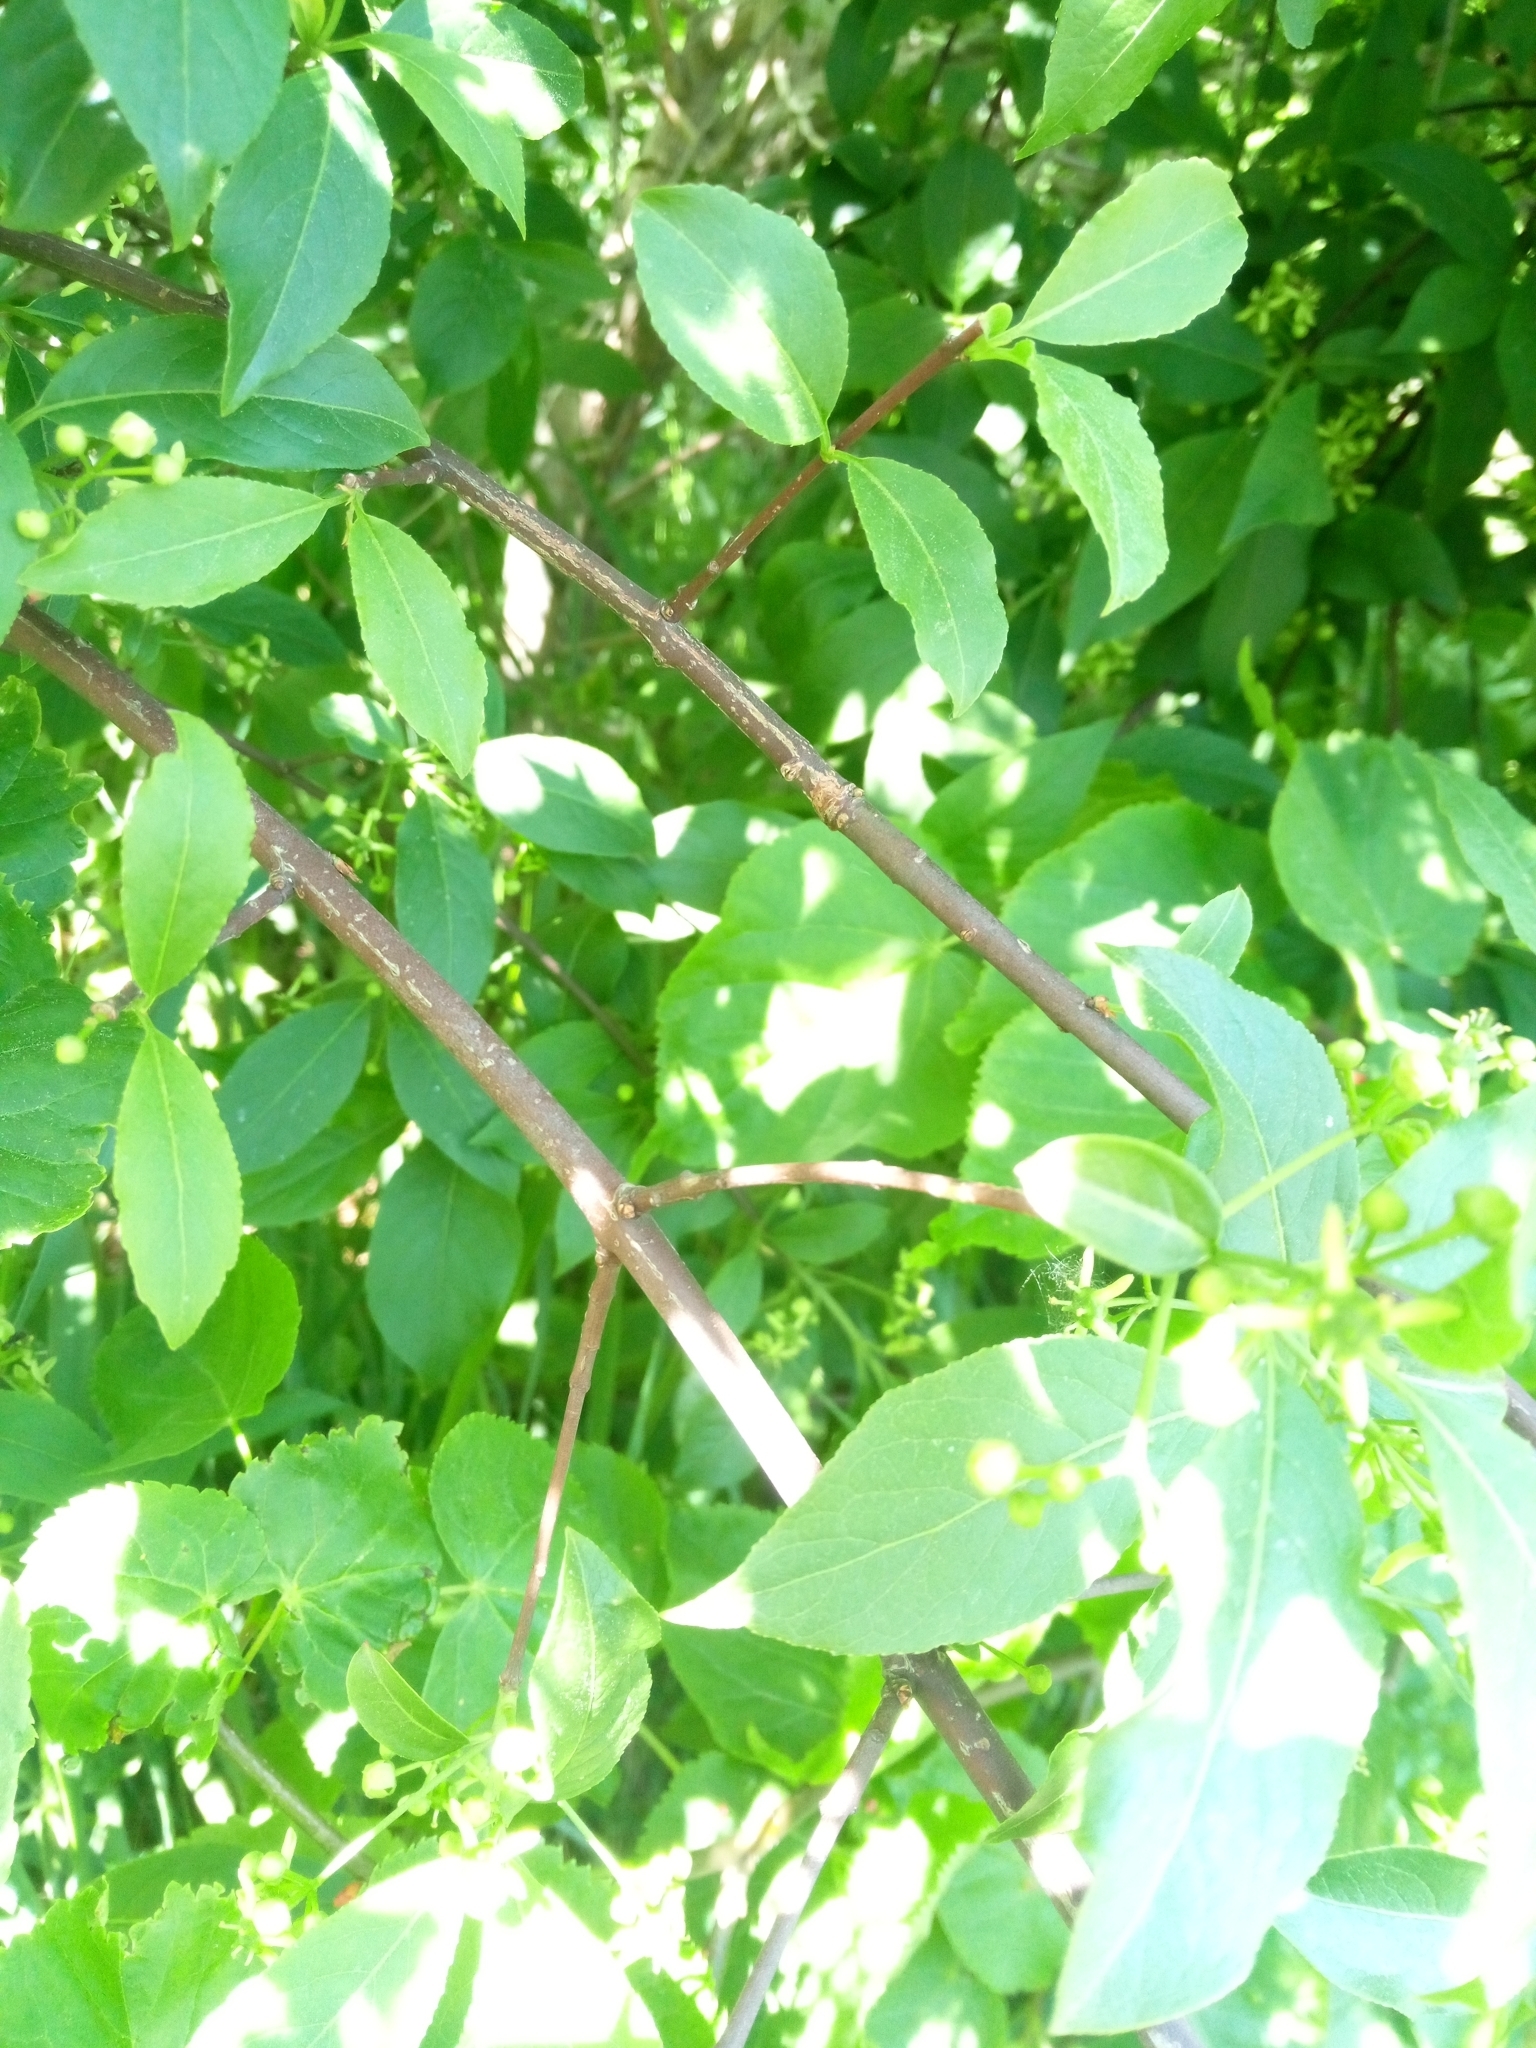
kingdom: Plantae
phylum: Tracheophyta
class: Magnoliopsida
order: Celastrales
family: Celastraceae
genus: Euonymus
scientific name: Euonymus europaeus
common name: Spindle
